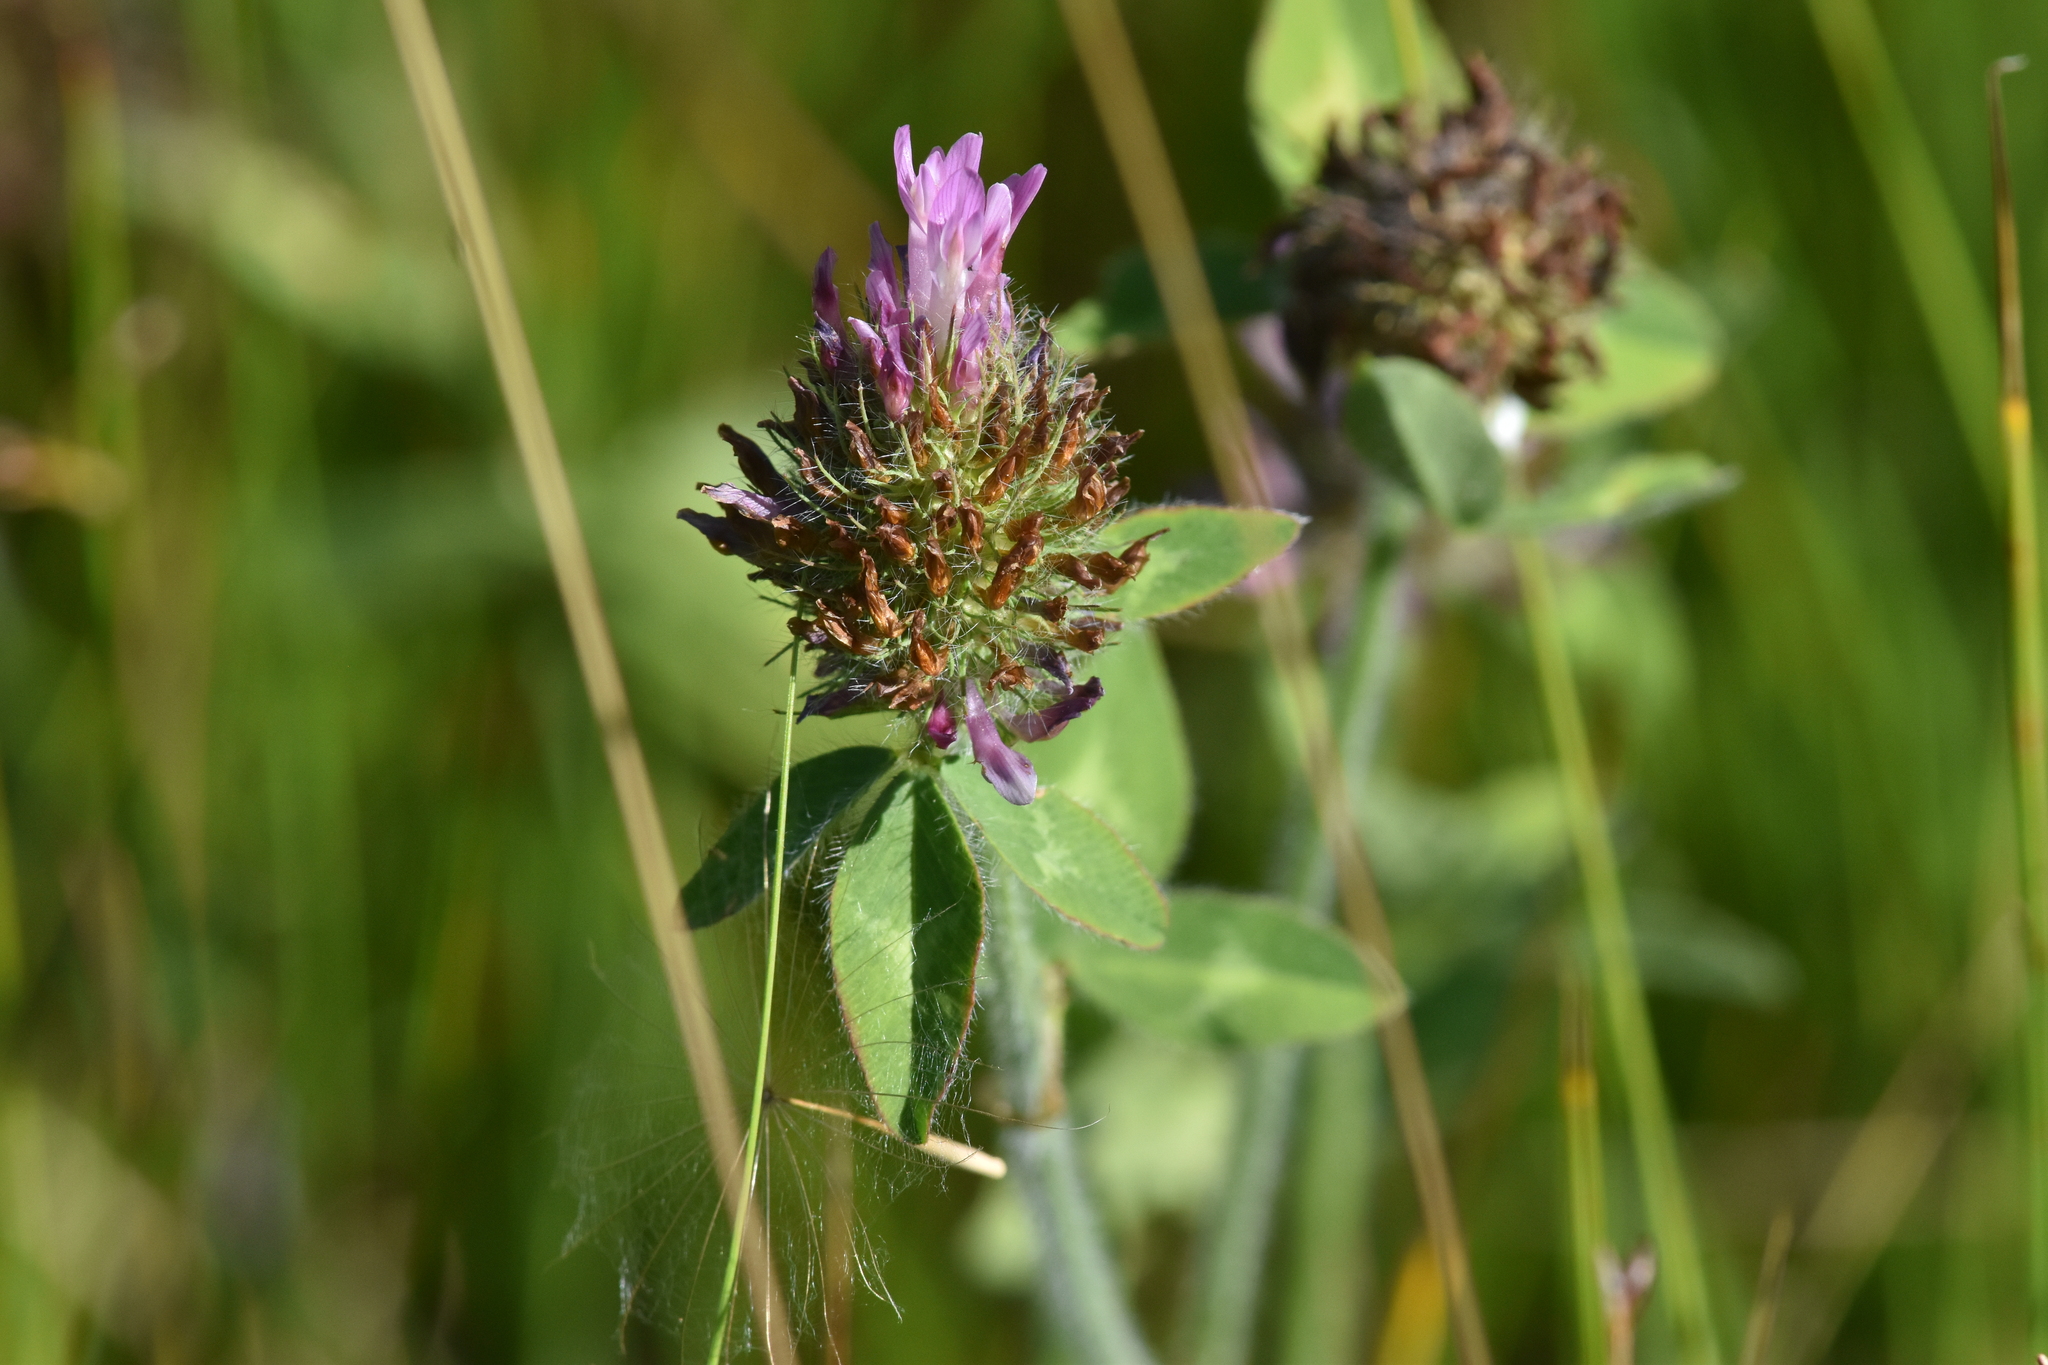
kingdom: Plantae
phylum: Tracheophyta
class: Magnoliopsida
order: Fabales
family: Fabaceae
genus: Trifolium
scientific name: Trifolium pratense
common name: Red clover
